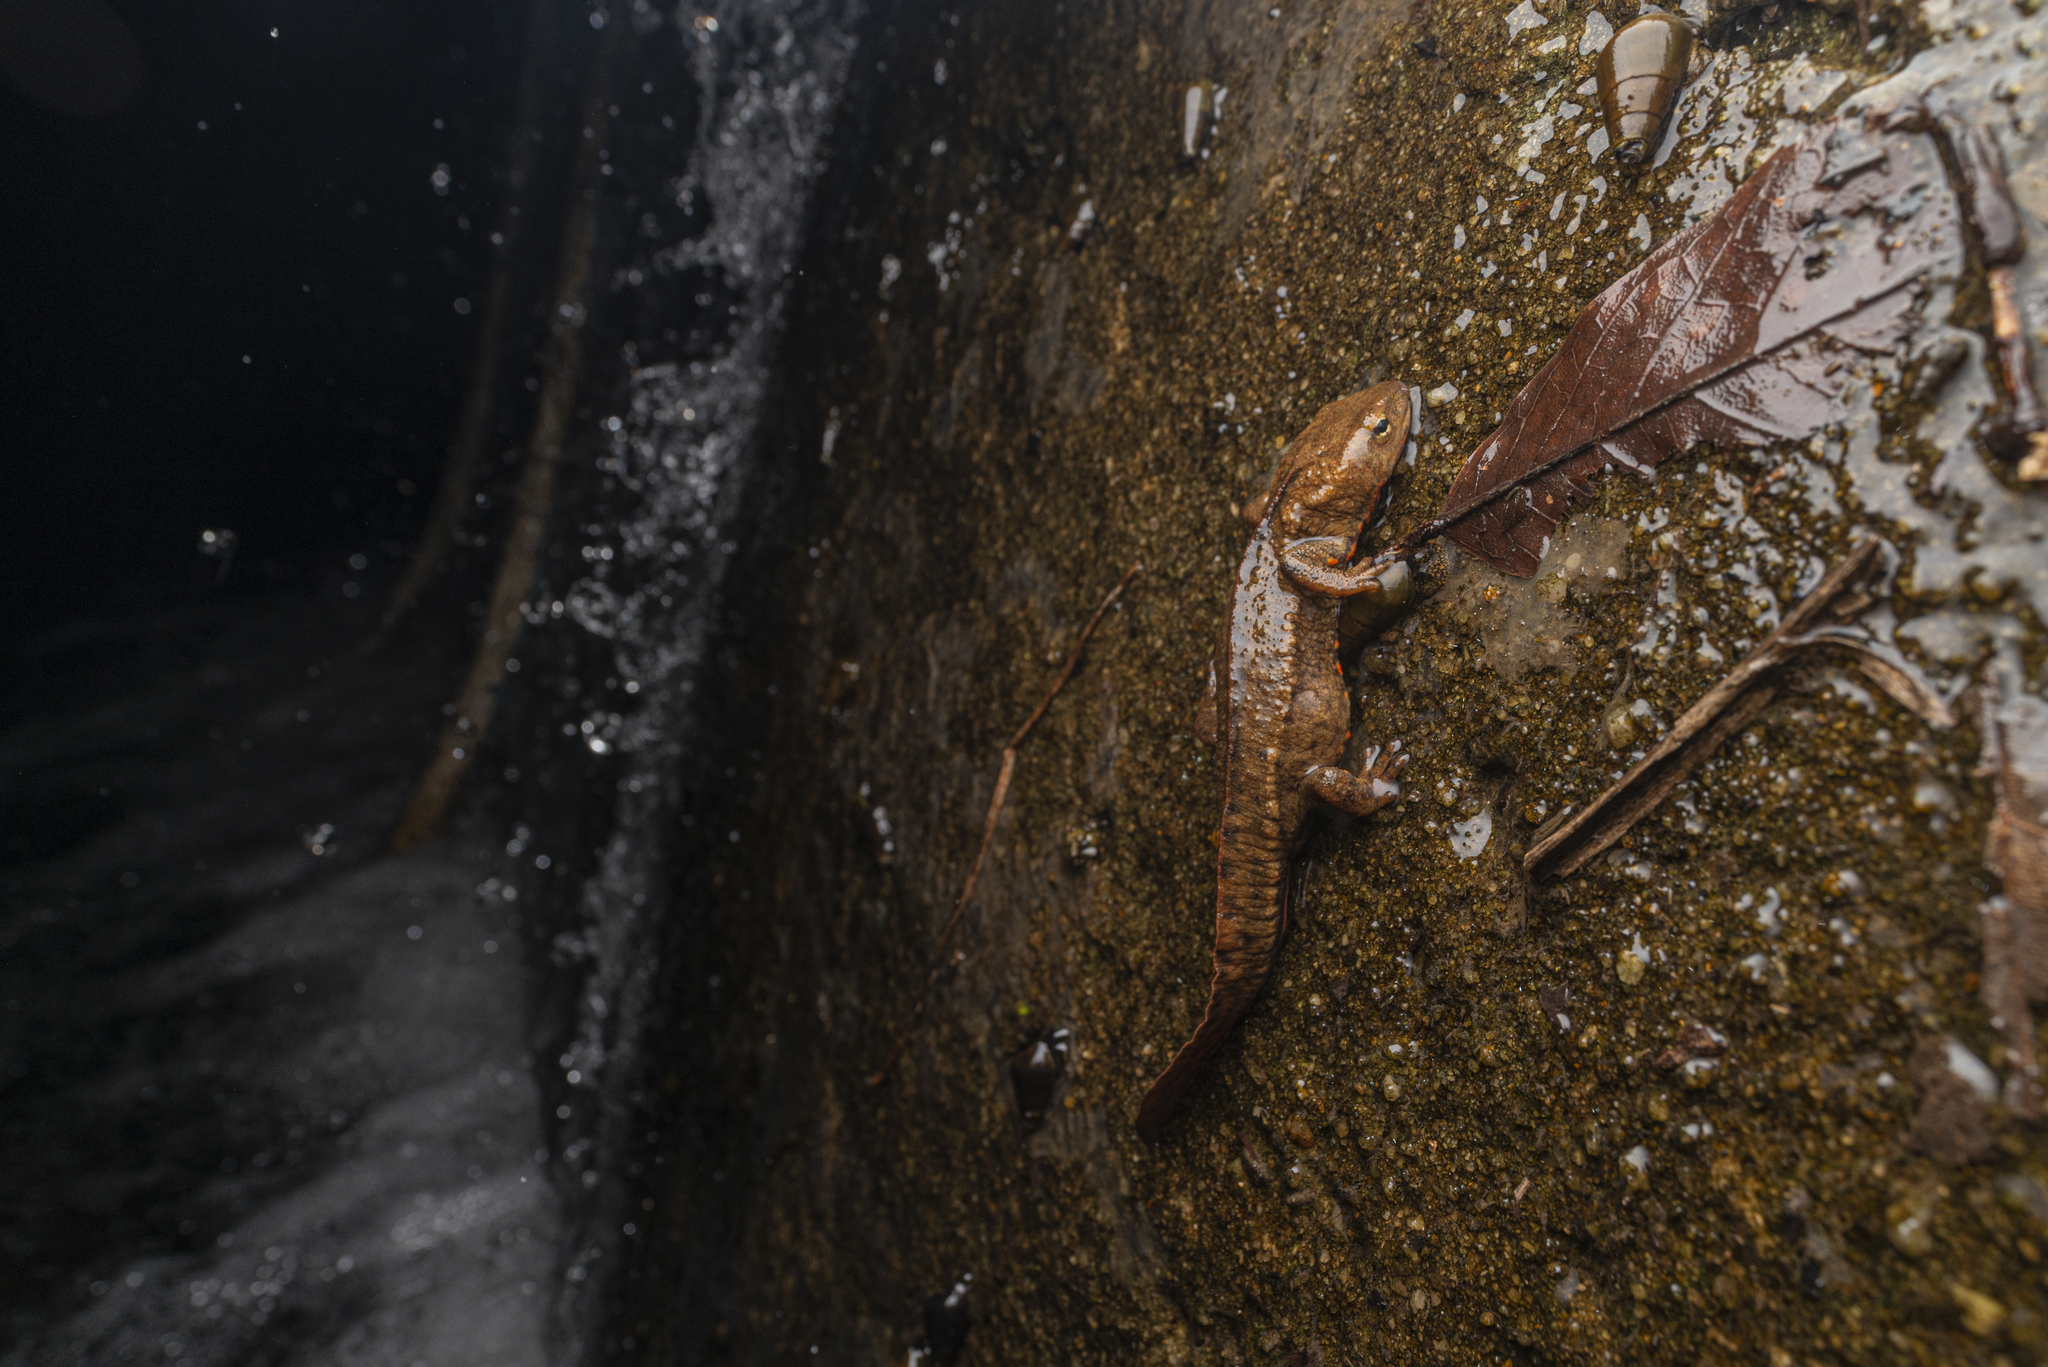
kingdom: Animalia
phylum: Chordata
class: Amphibia
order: Caudata
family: Salamandridae
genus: Paramesotriton
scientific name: Paramesotriton hongkongensis
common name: Hong kong warty newt
